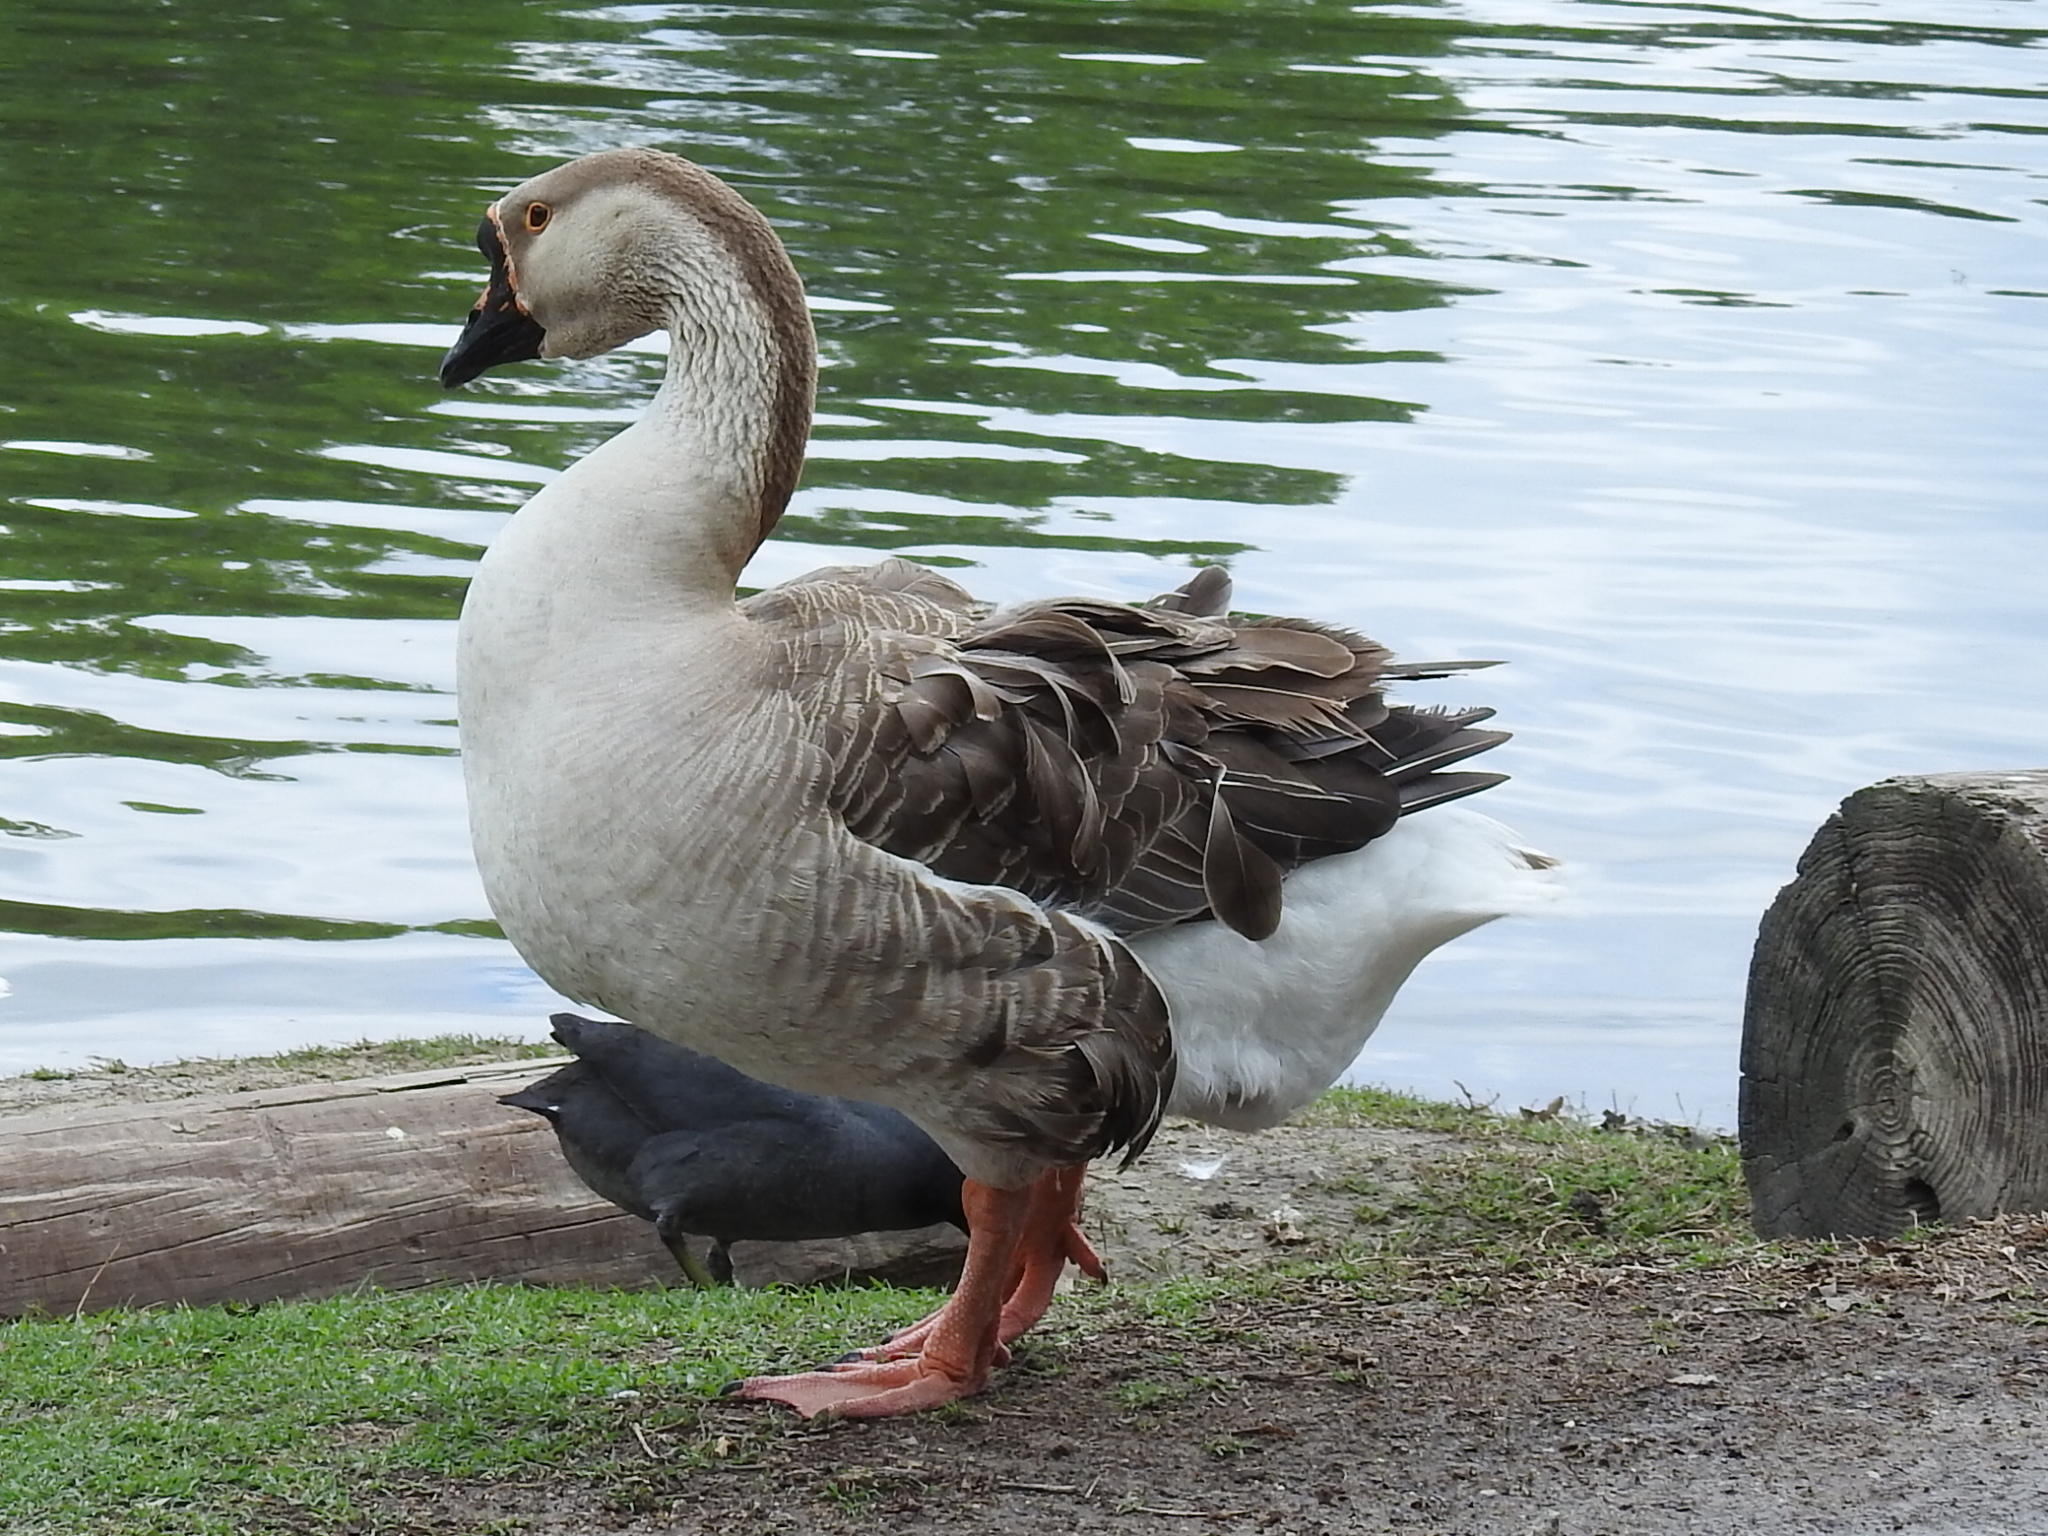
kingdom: Animalia
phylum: Chordata
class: Aves
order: Anseriformes
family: Anatidae
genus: Anser
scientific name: Anser cygnoides
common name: Swan goose
